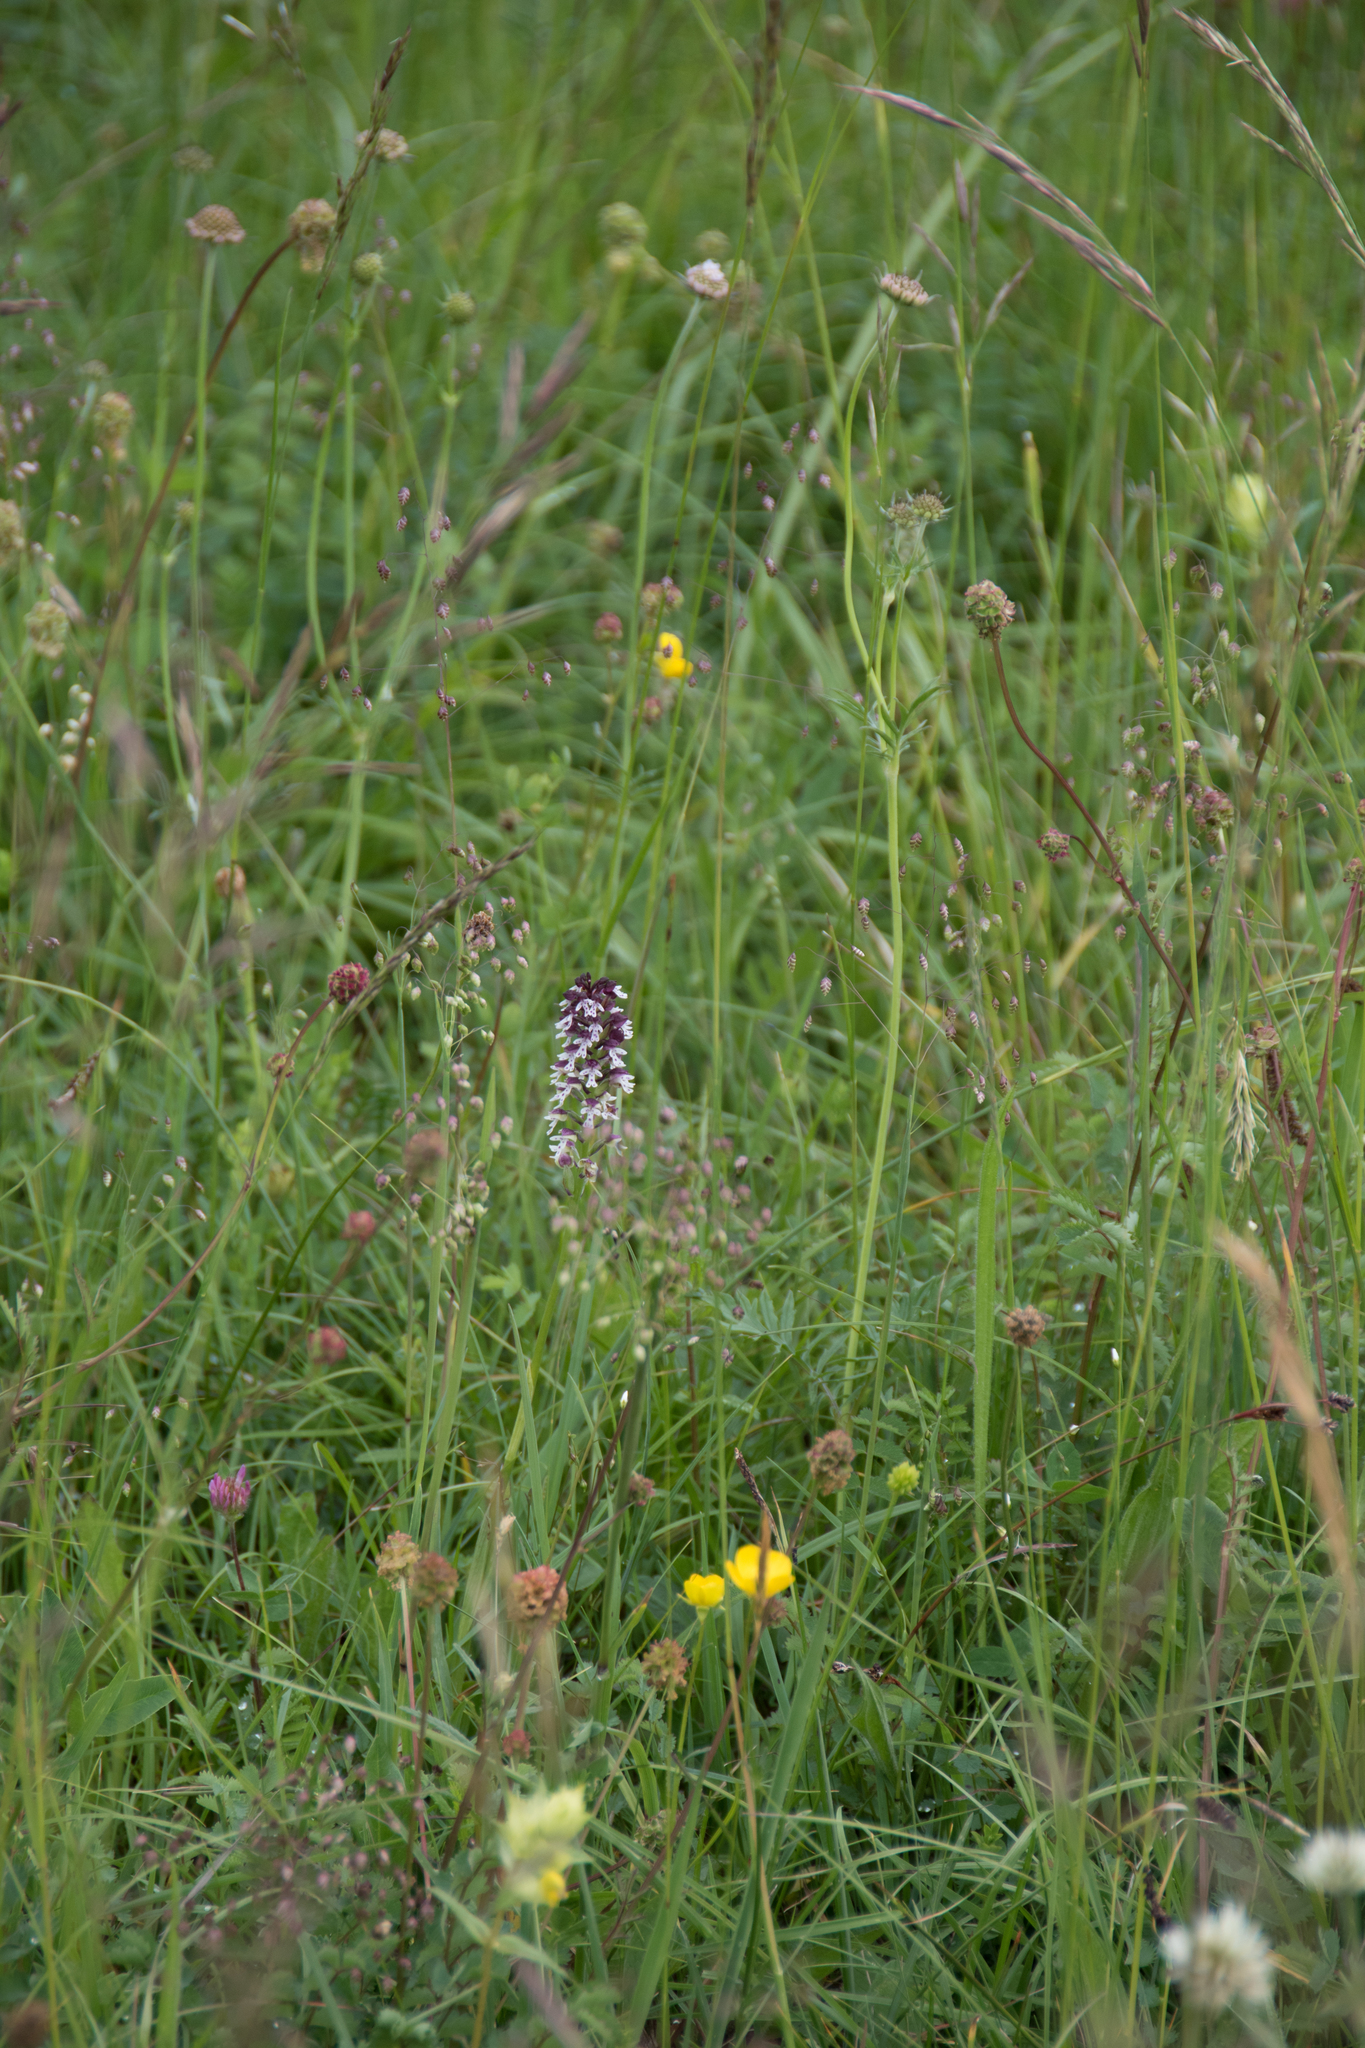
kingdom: Plantae
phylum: Tracheophyta
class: Liliopsida
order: Asparagales
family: Orchidaceae
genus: Neotinea
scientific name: Neotinea ustulata
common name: Burnt orchid
